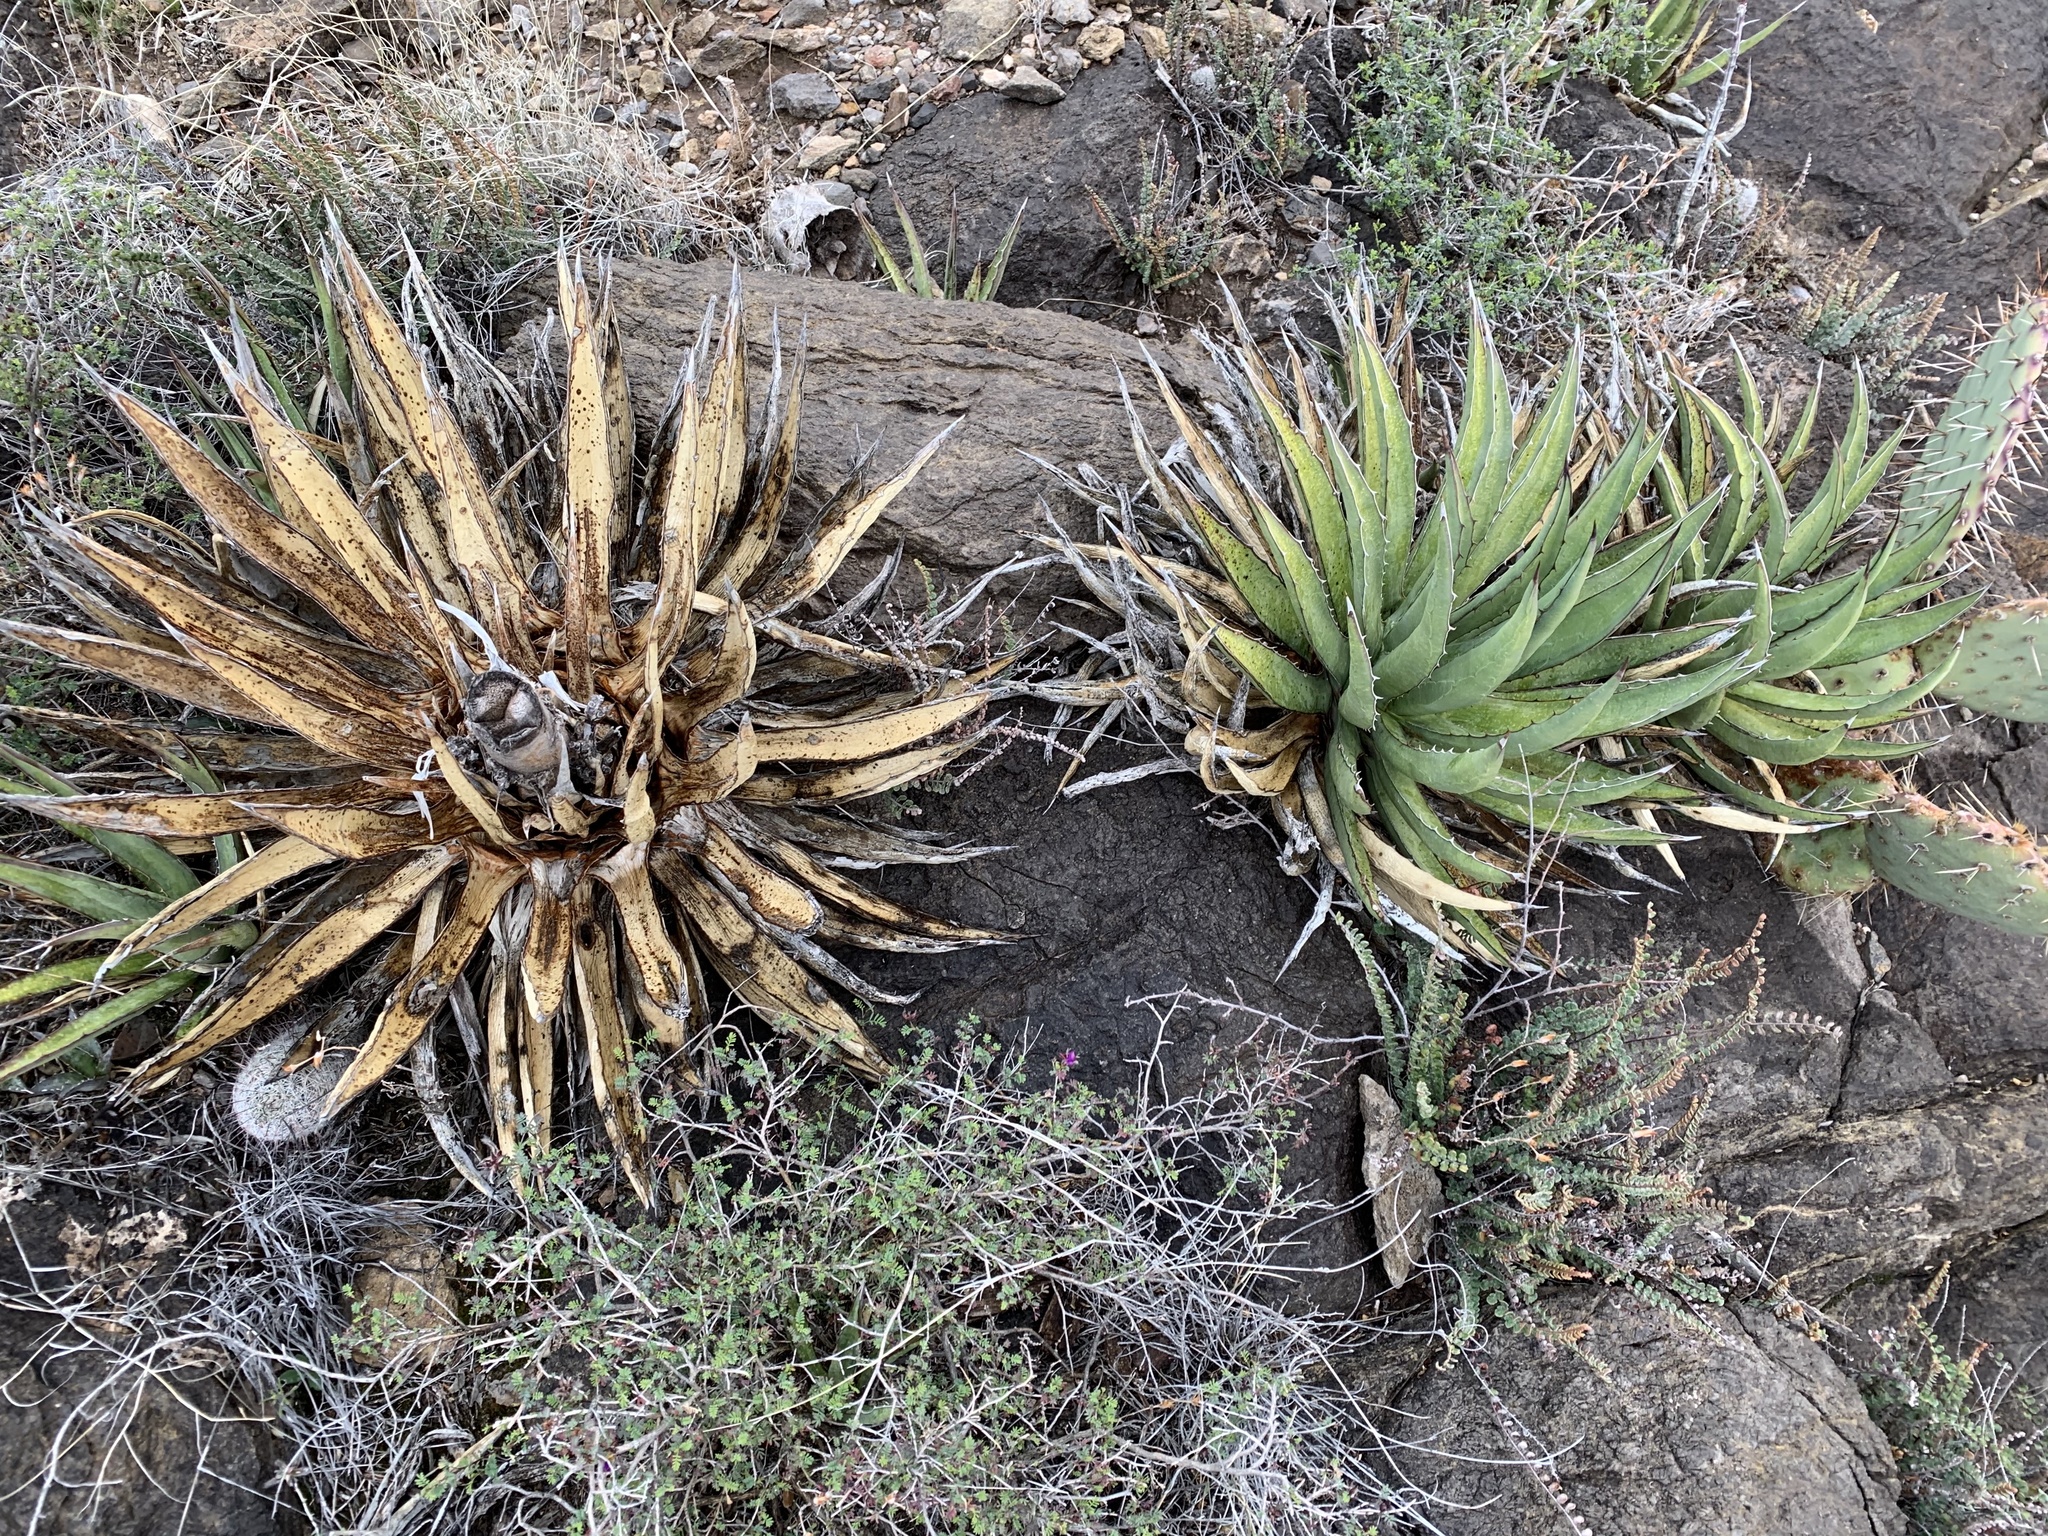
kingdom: Plantae
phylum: Tracheophyta
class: Liliopsida
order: Asparagales
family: Asparagaceae
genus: Agave
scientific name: Agave lechuguilla
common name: Lecheguilla agave
